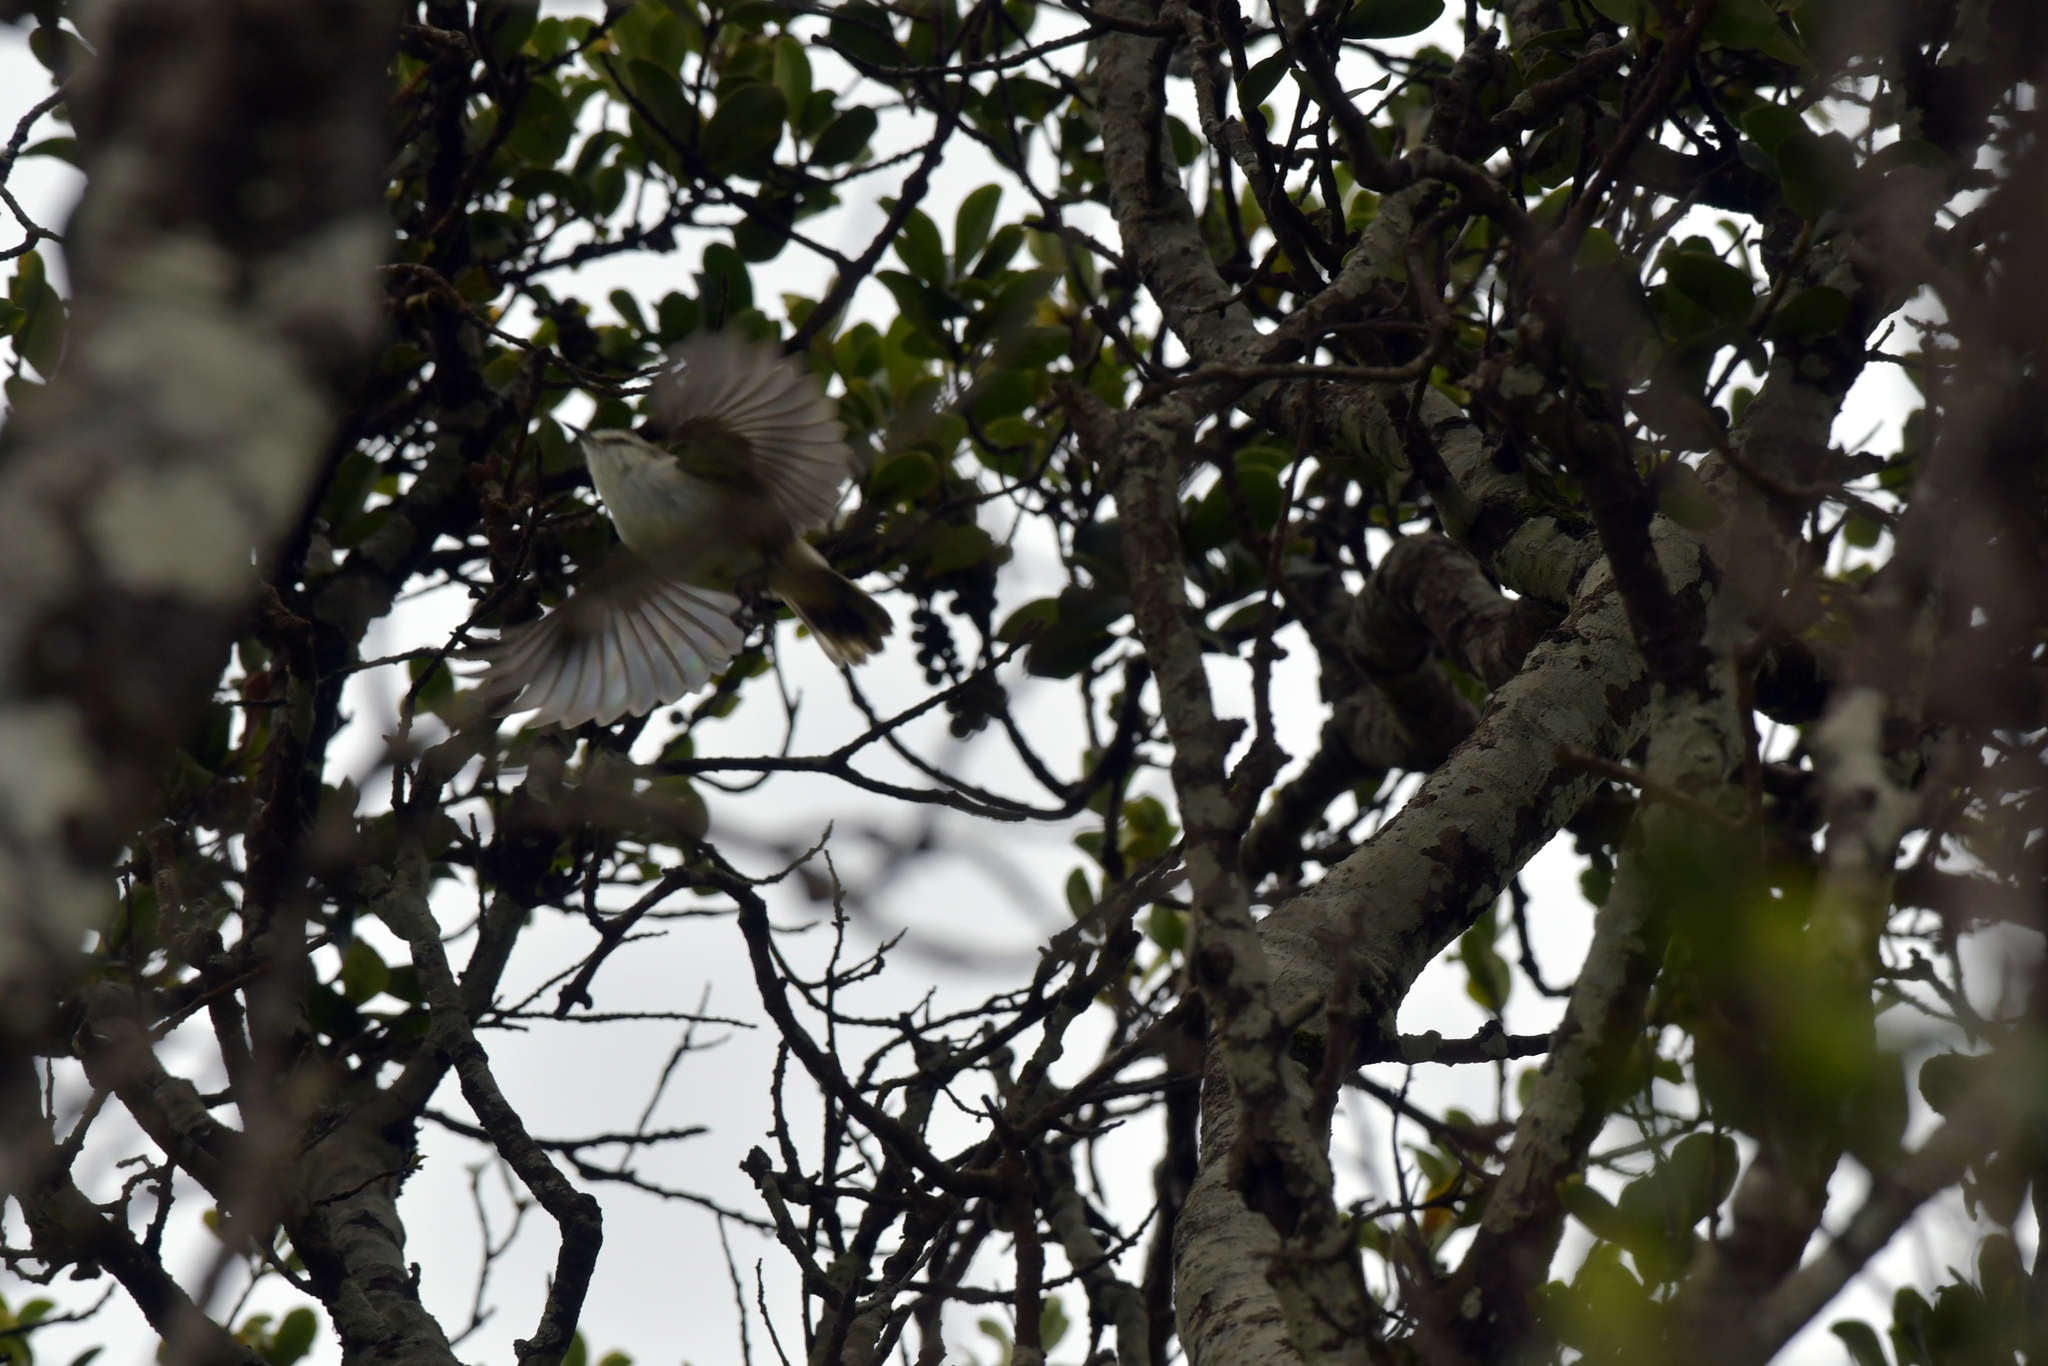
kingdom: Animalia
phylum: Chordata
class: Aves
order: Passeriformes
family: Acanthizidae
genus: Gerygone
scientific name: Gerygone albofrontata
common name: Chatham gerygone
